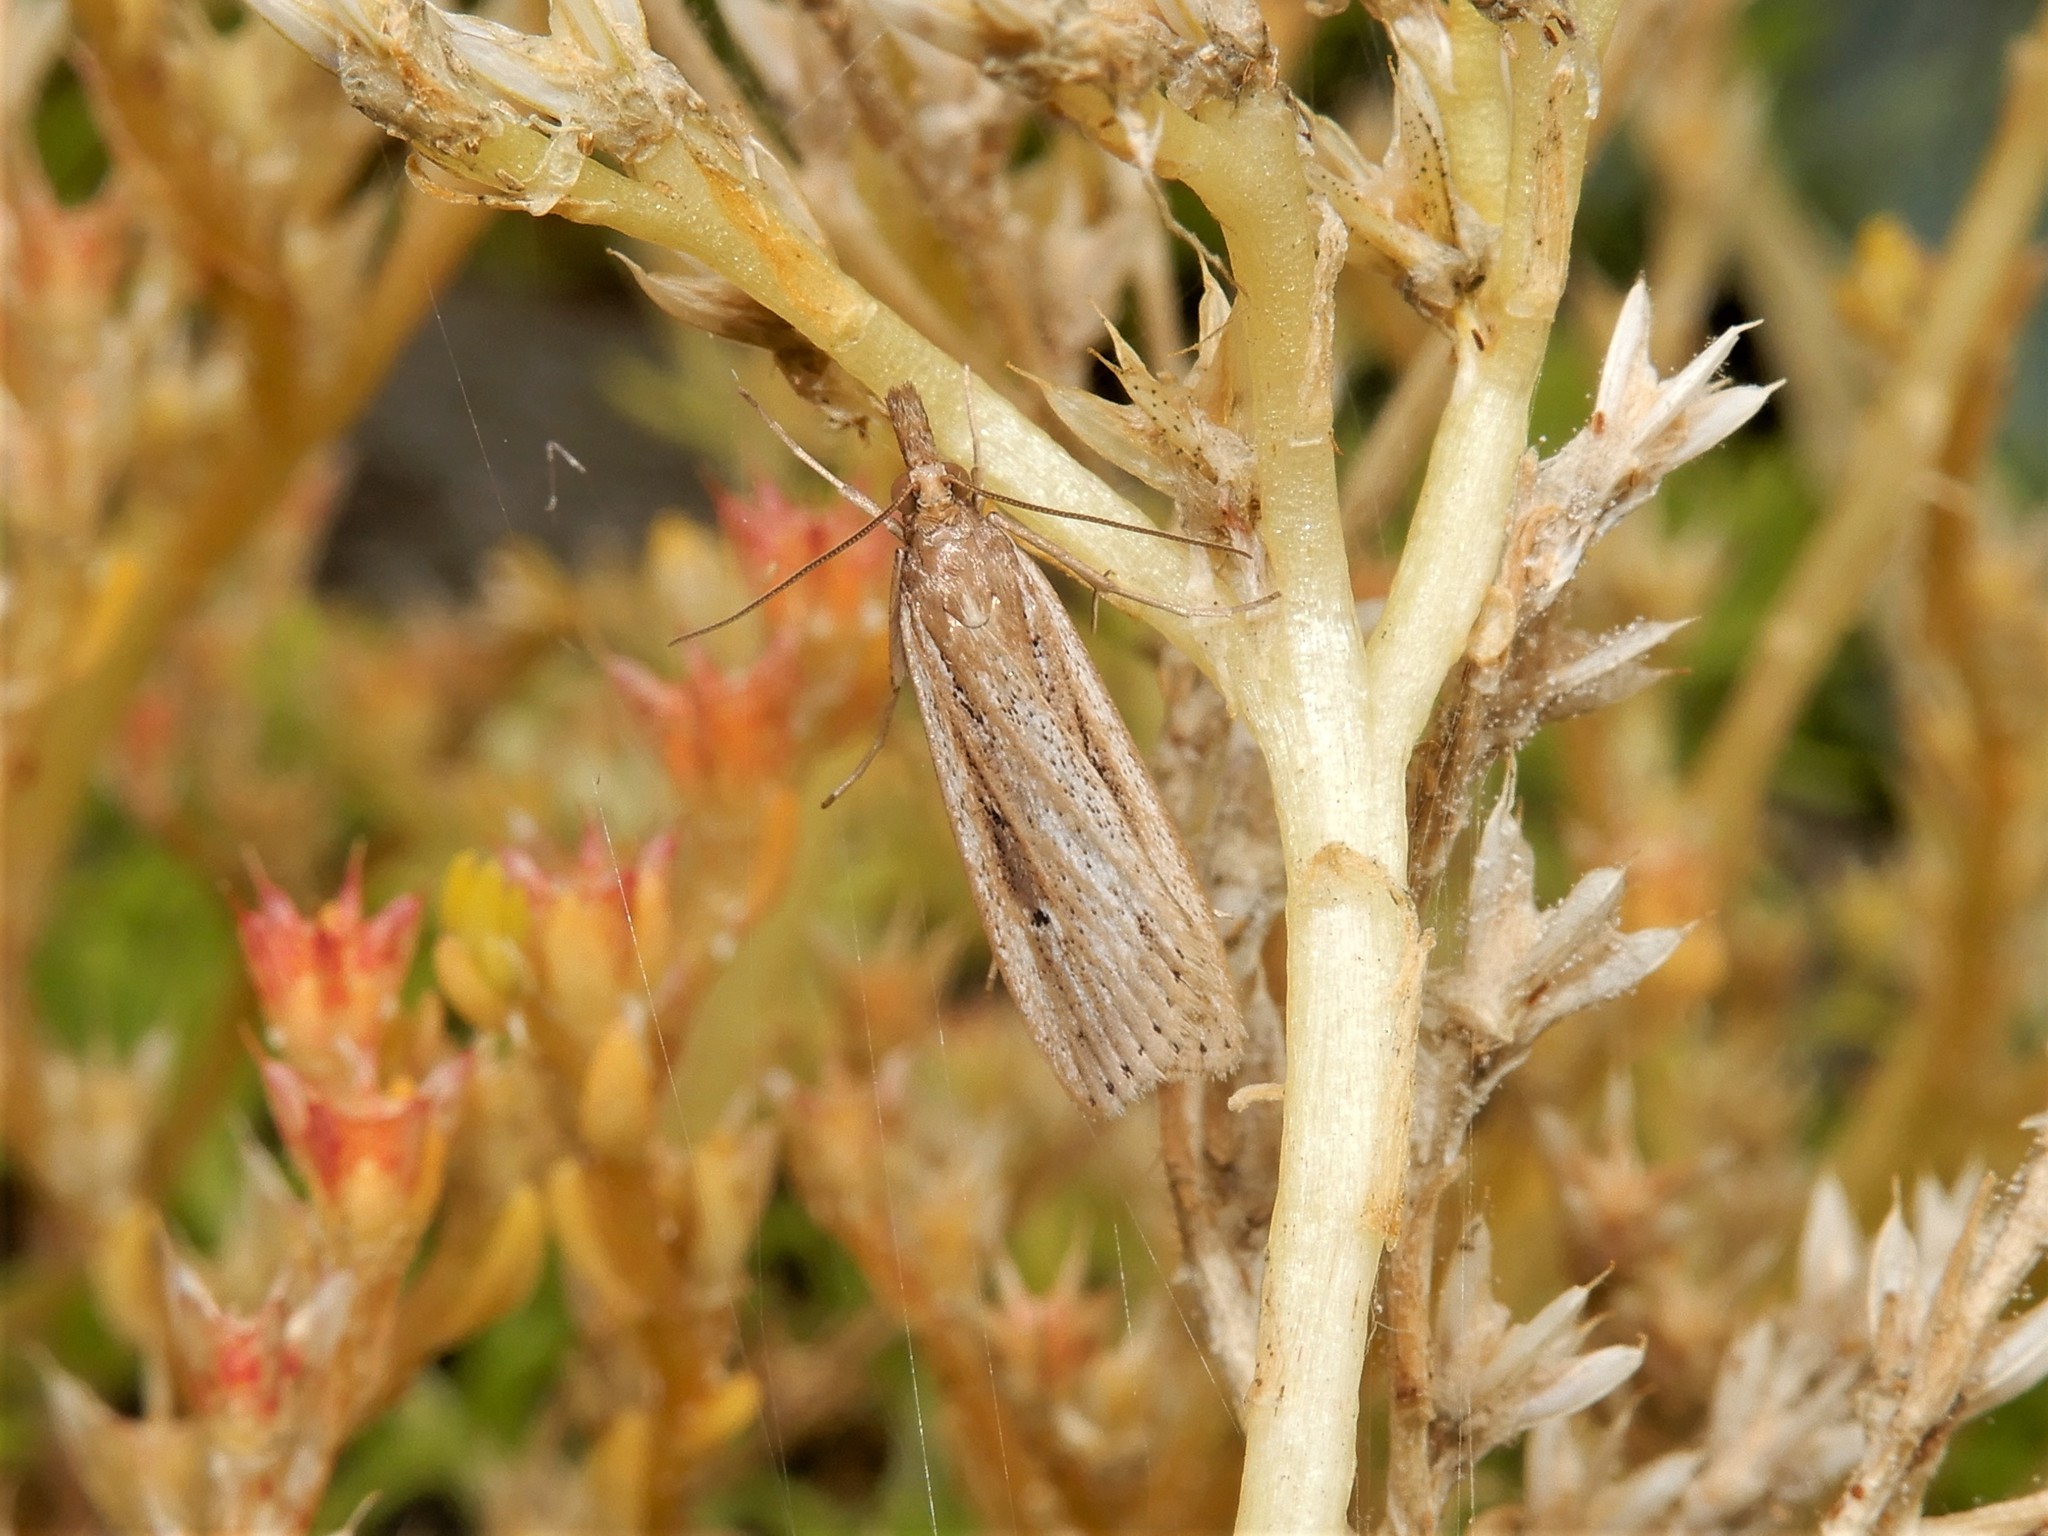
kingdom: Animalia
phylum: Arthropoda
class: Insecta
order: Lepidoptera
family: Crambidae
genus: Eudonia
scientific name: Eudonia sabulosella
